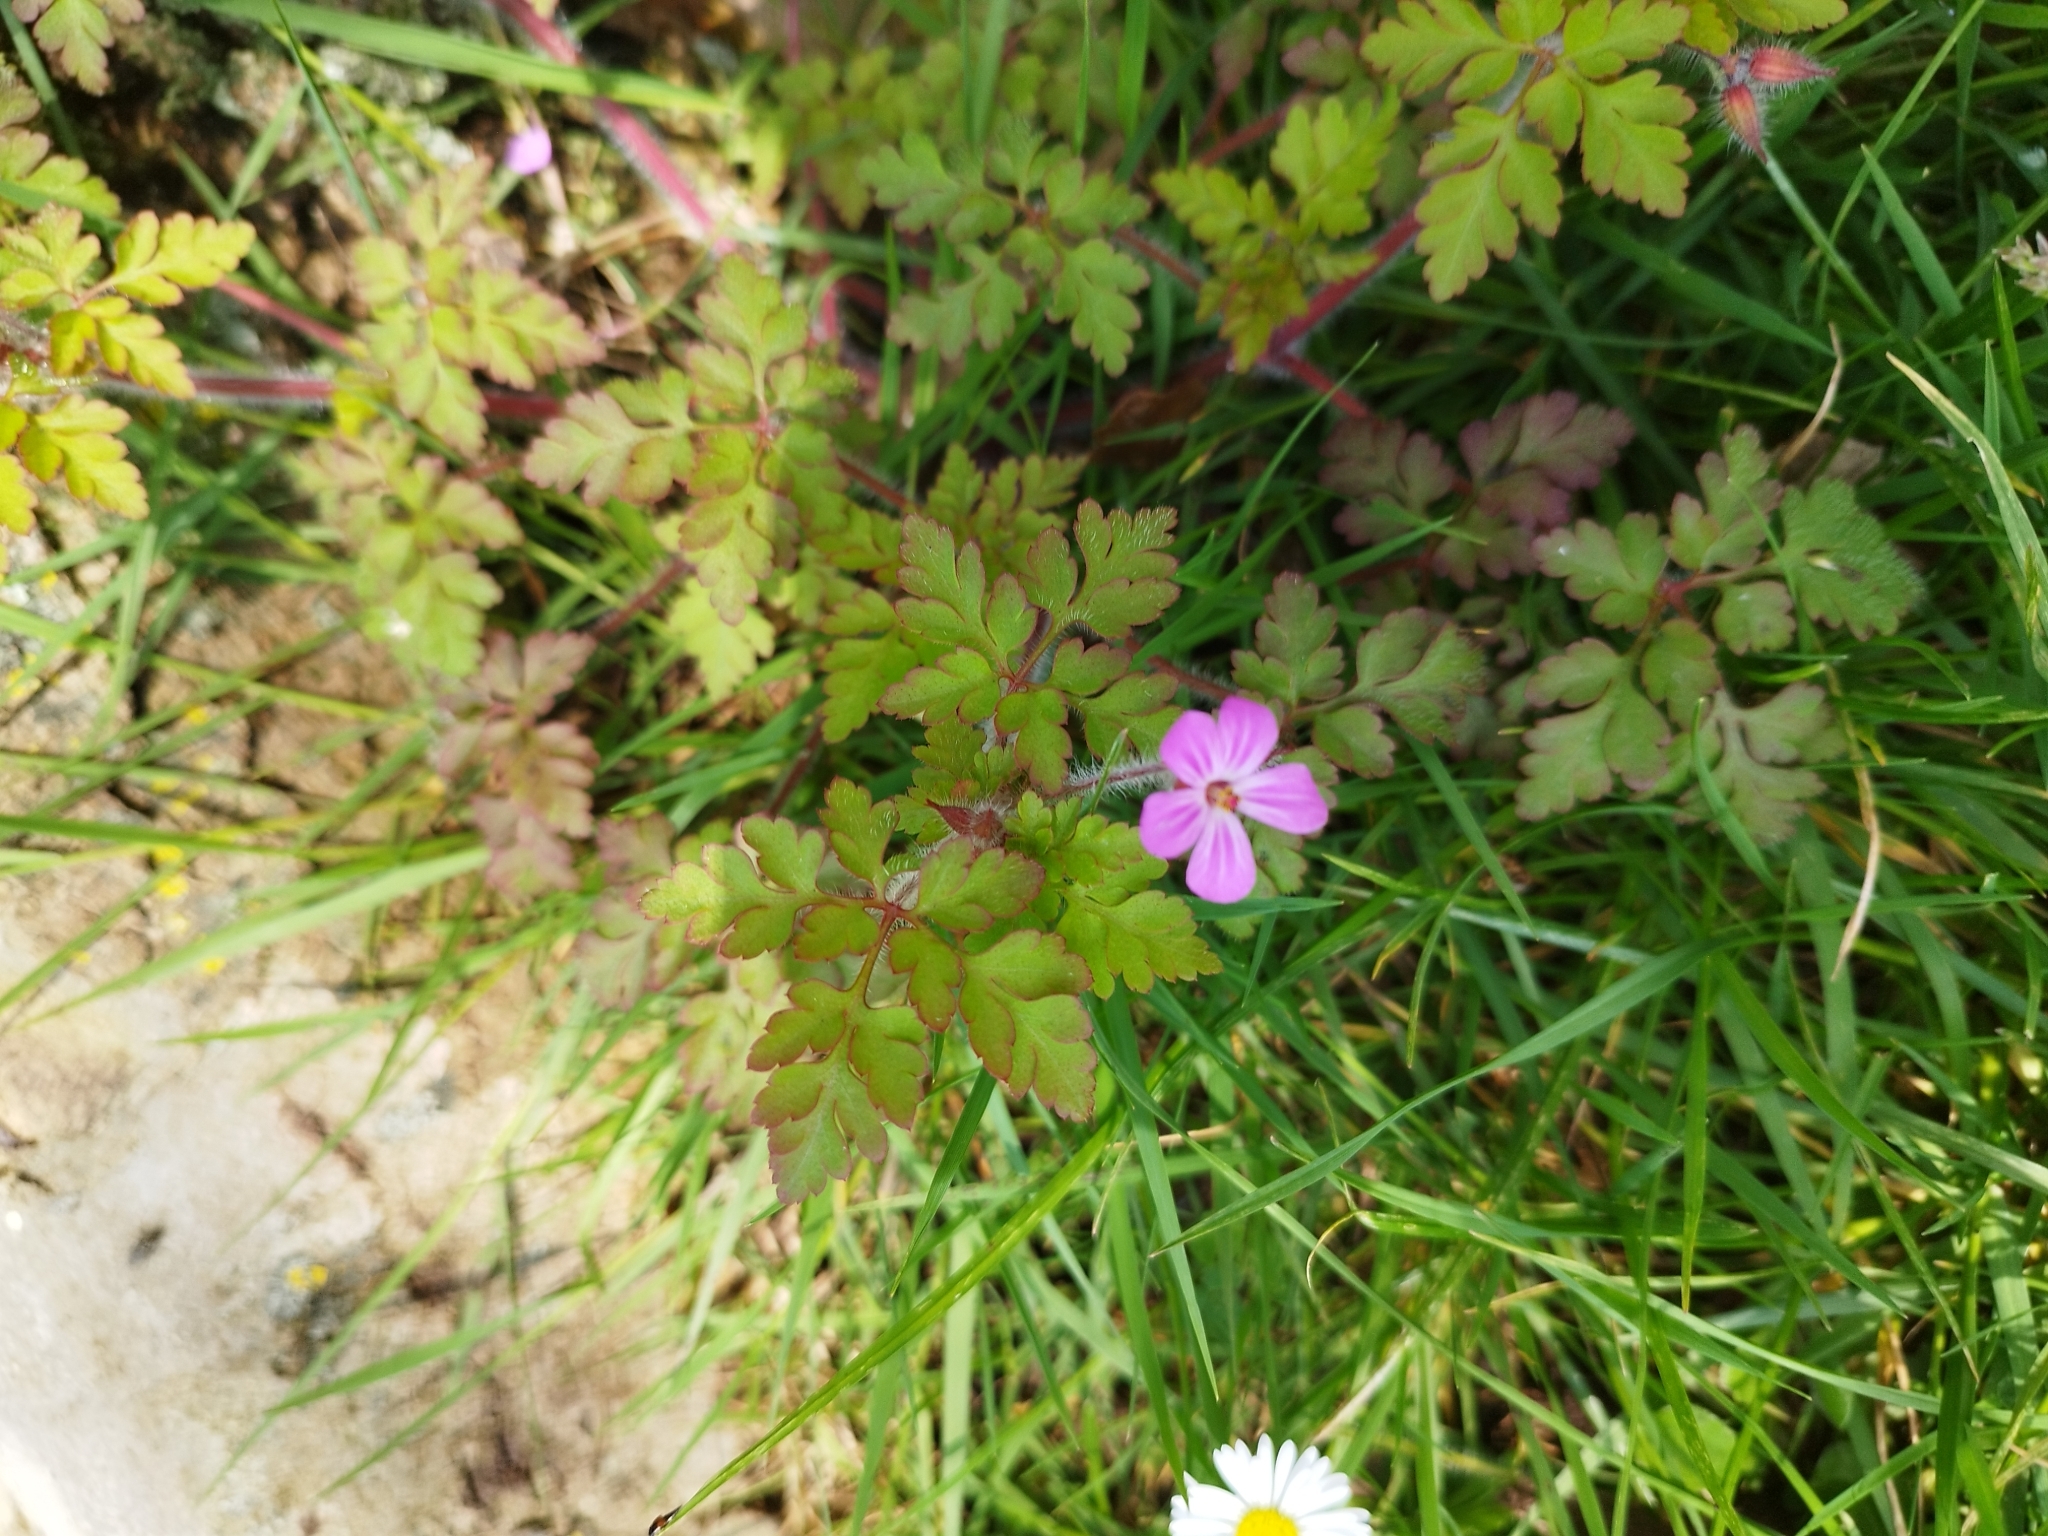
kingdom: Plantae
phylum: Tracheophyta
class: Magnoliopsida
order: Geraniales
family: Geraniaceae
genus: Geranium
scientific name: Geranium robertianum
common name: Herb-robert
